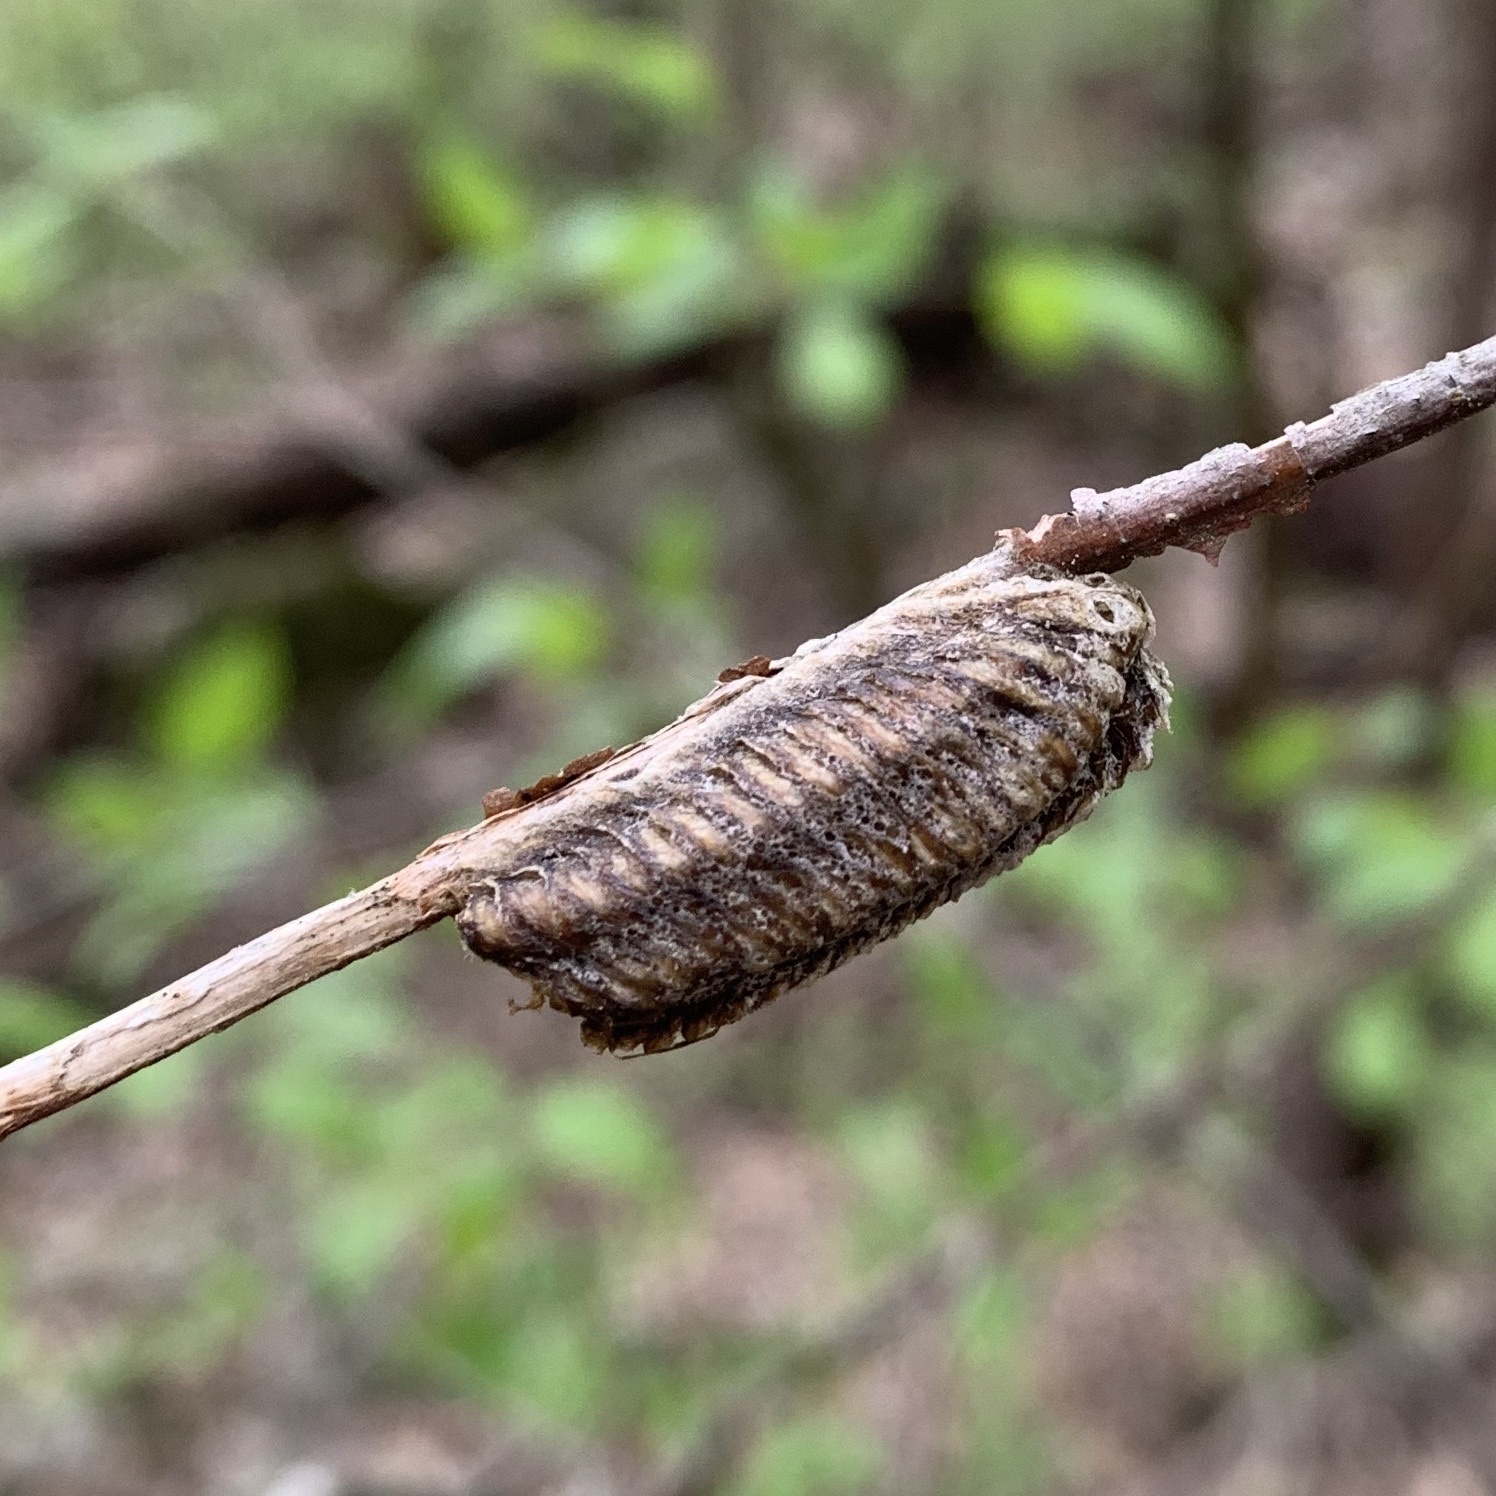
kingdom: Animalia
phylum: Arthropoda
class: Insecta
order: Mantodea
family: Mantidae
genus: Stagmomantis
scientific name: Stagmomantis carolina
